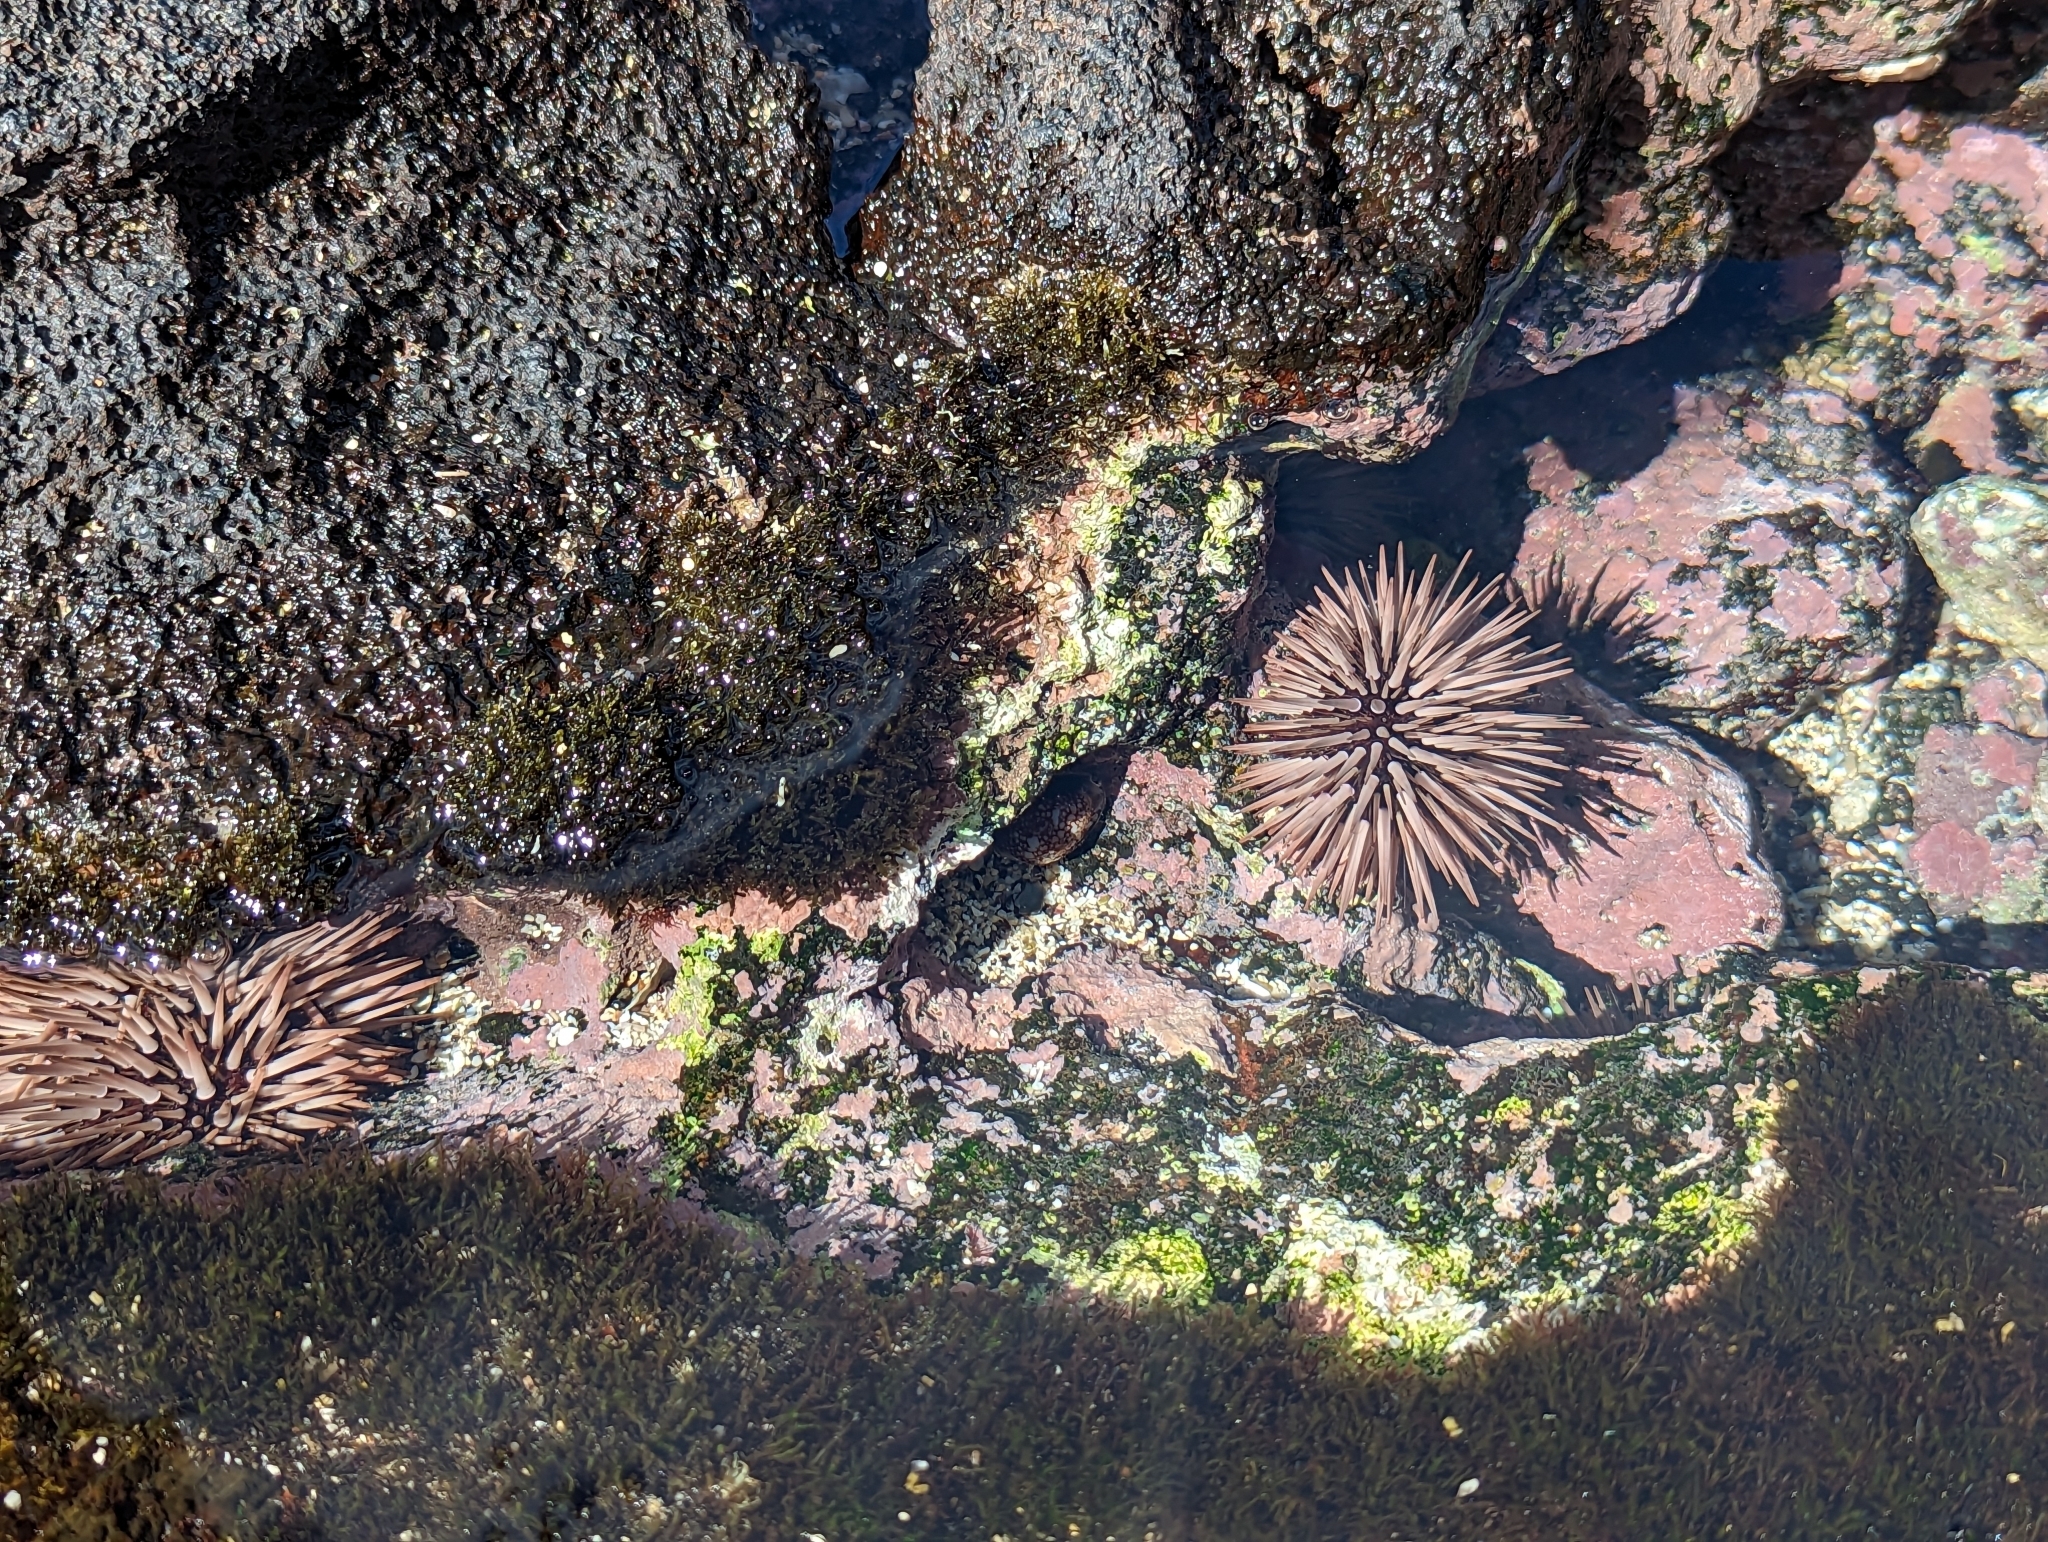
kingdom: Animalia
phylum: Echinodermata
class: Echinoidea
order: Camarodonta
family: Echinometridae
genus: Echinometra
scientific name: Echinometra mathaei
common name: Rock-boring urchin
